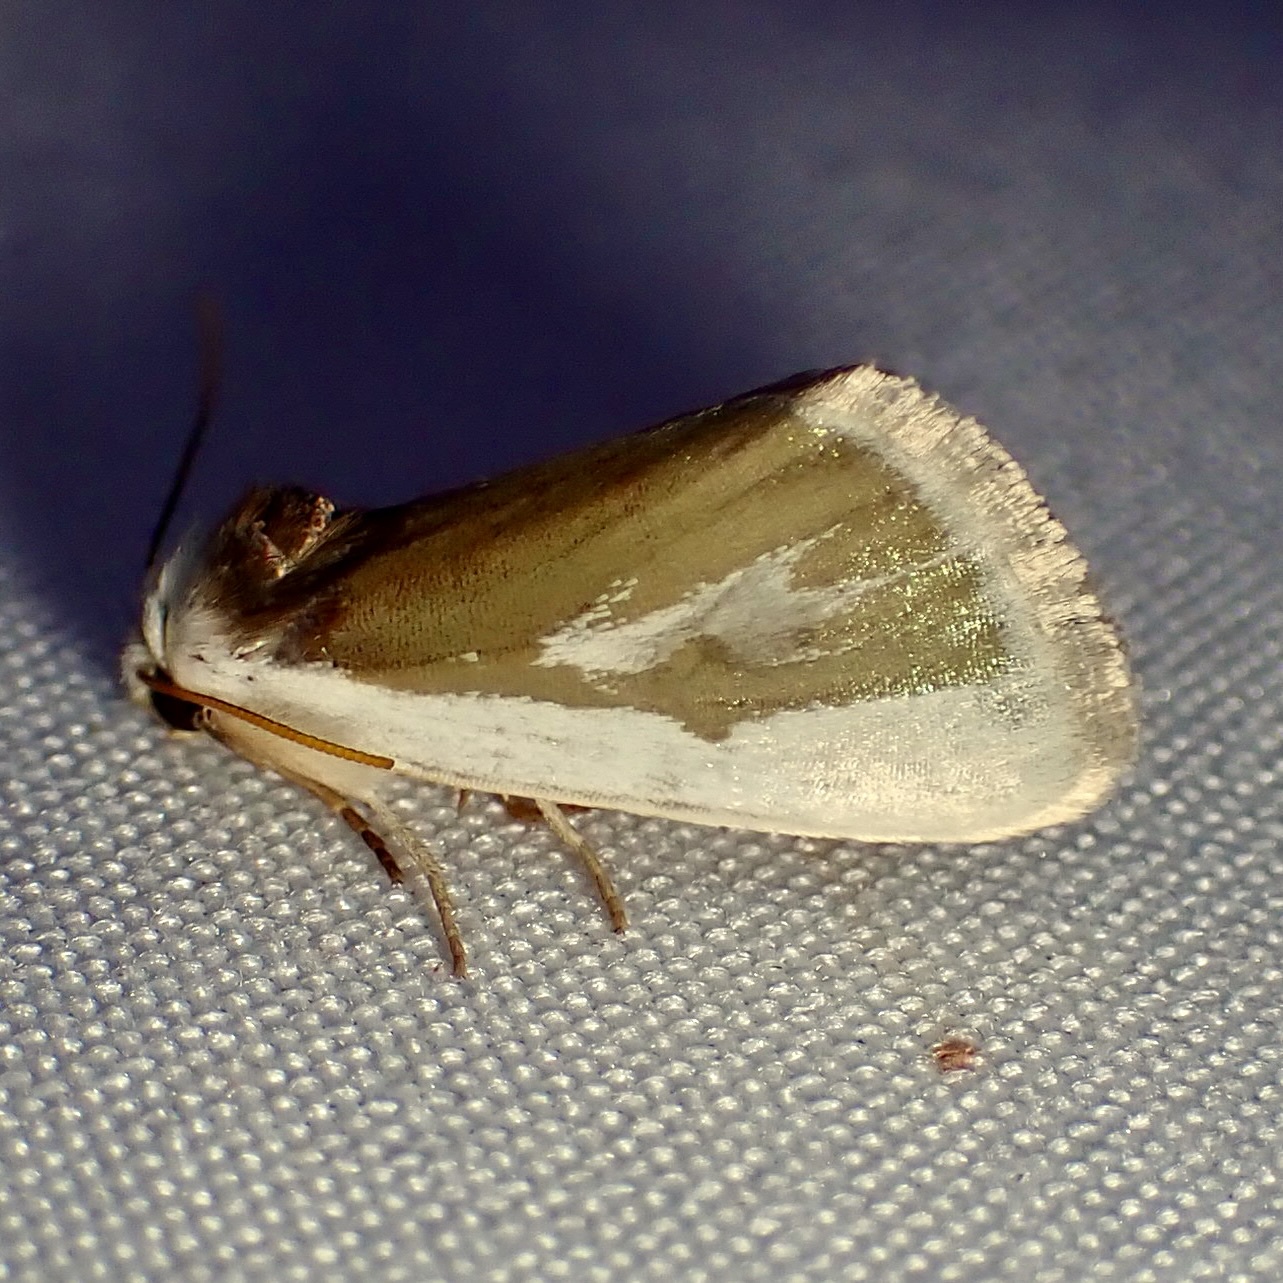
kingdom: Animalia
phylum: Arthropoda
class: Insecta
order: Lepidoptera
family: Noctuidae
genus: Neumoegenia
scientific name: Neumoegenia poetica
